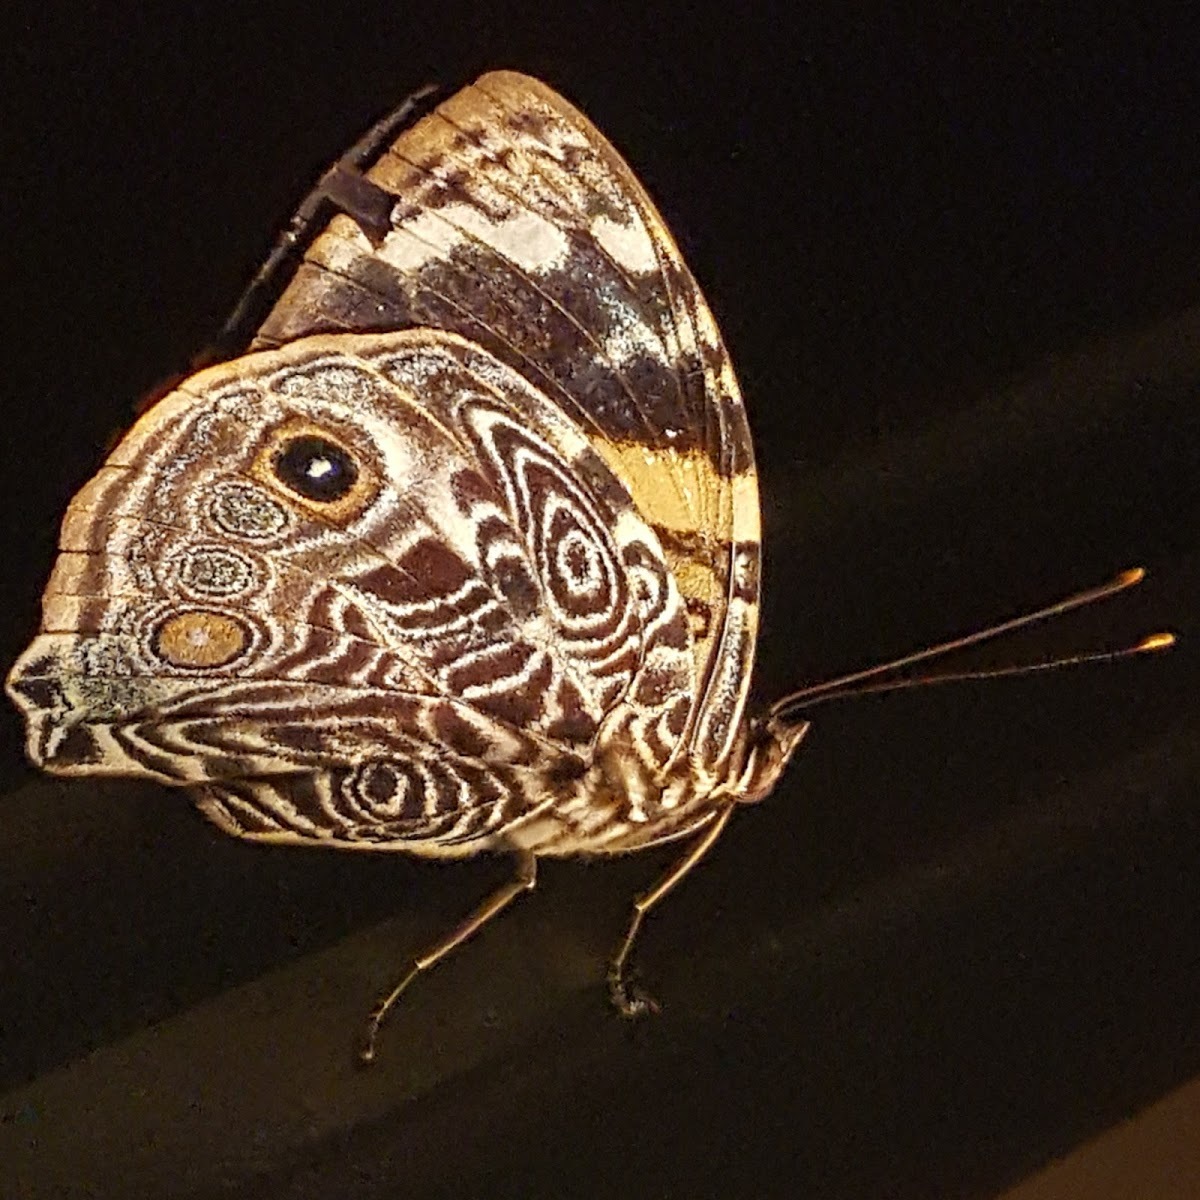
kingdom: Animalia
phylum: Arthropoda
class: Insecta
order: Lepidoptera
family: Nymphalidae
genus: Smyrna
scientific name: Smyrna blomfildia
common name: Blomfild's beauty
